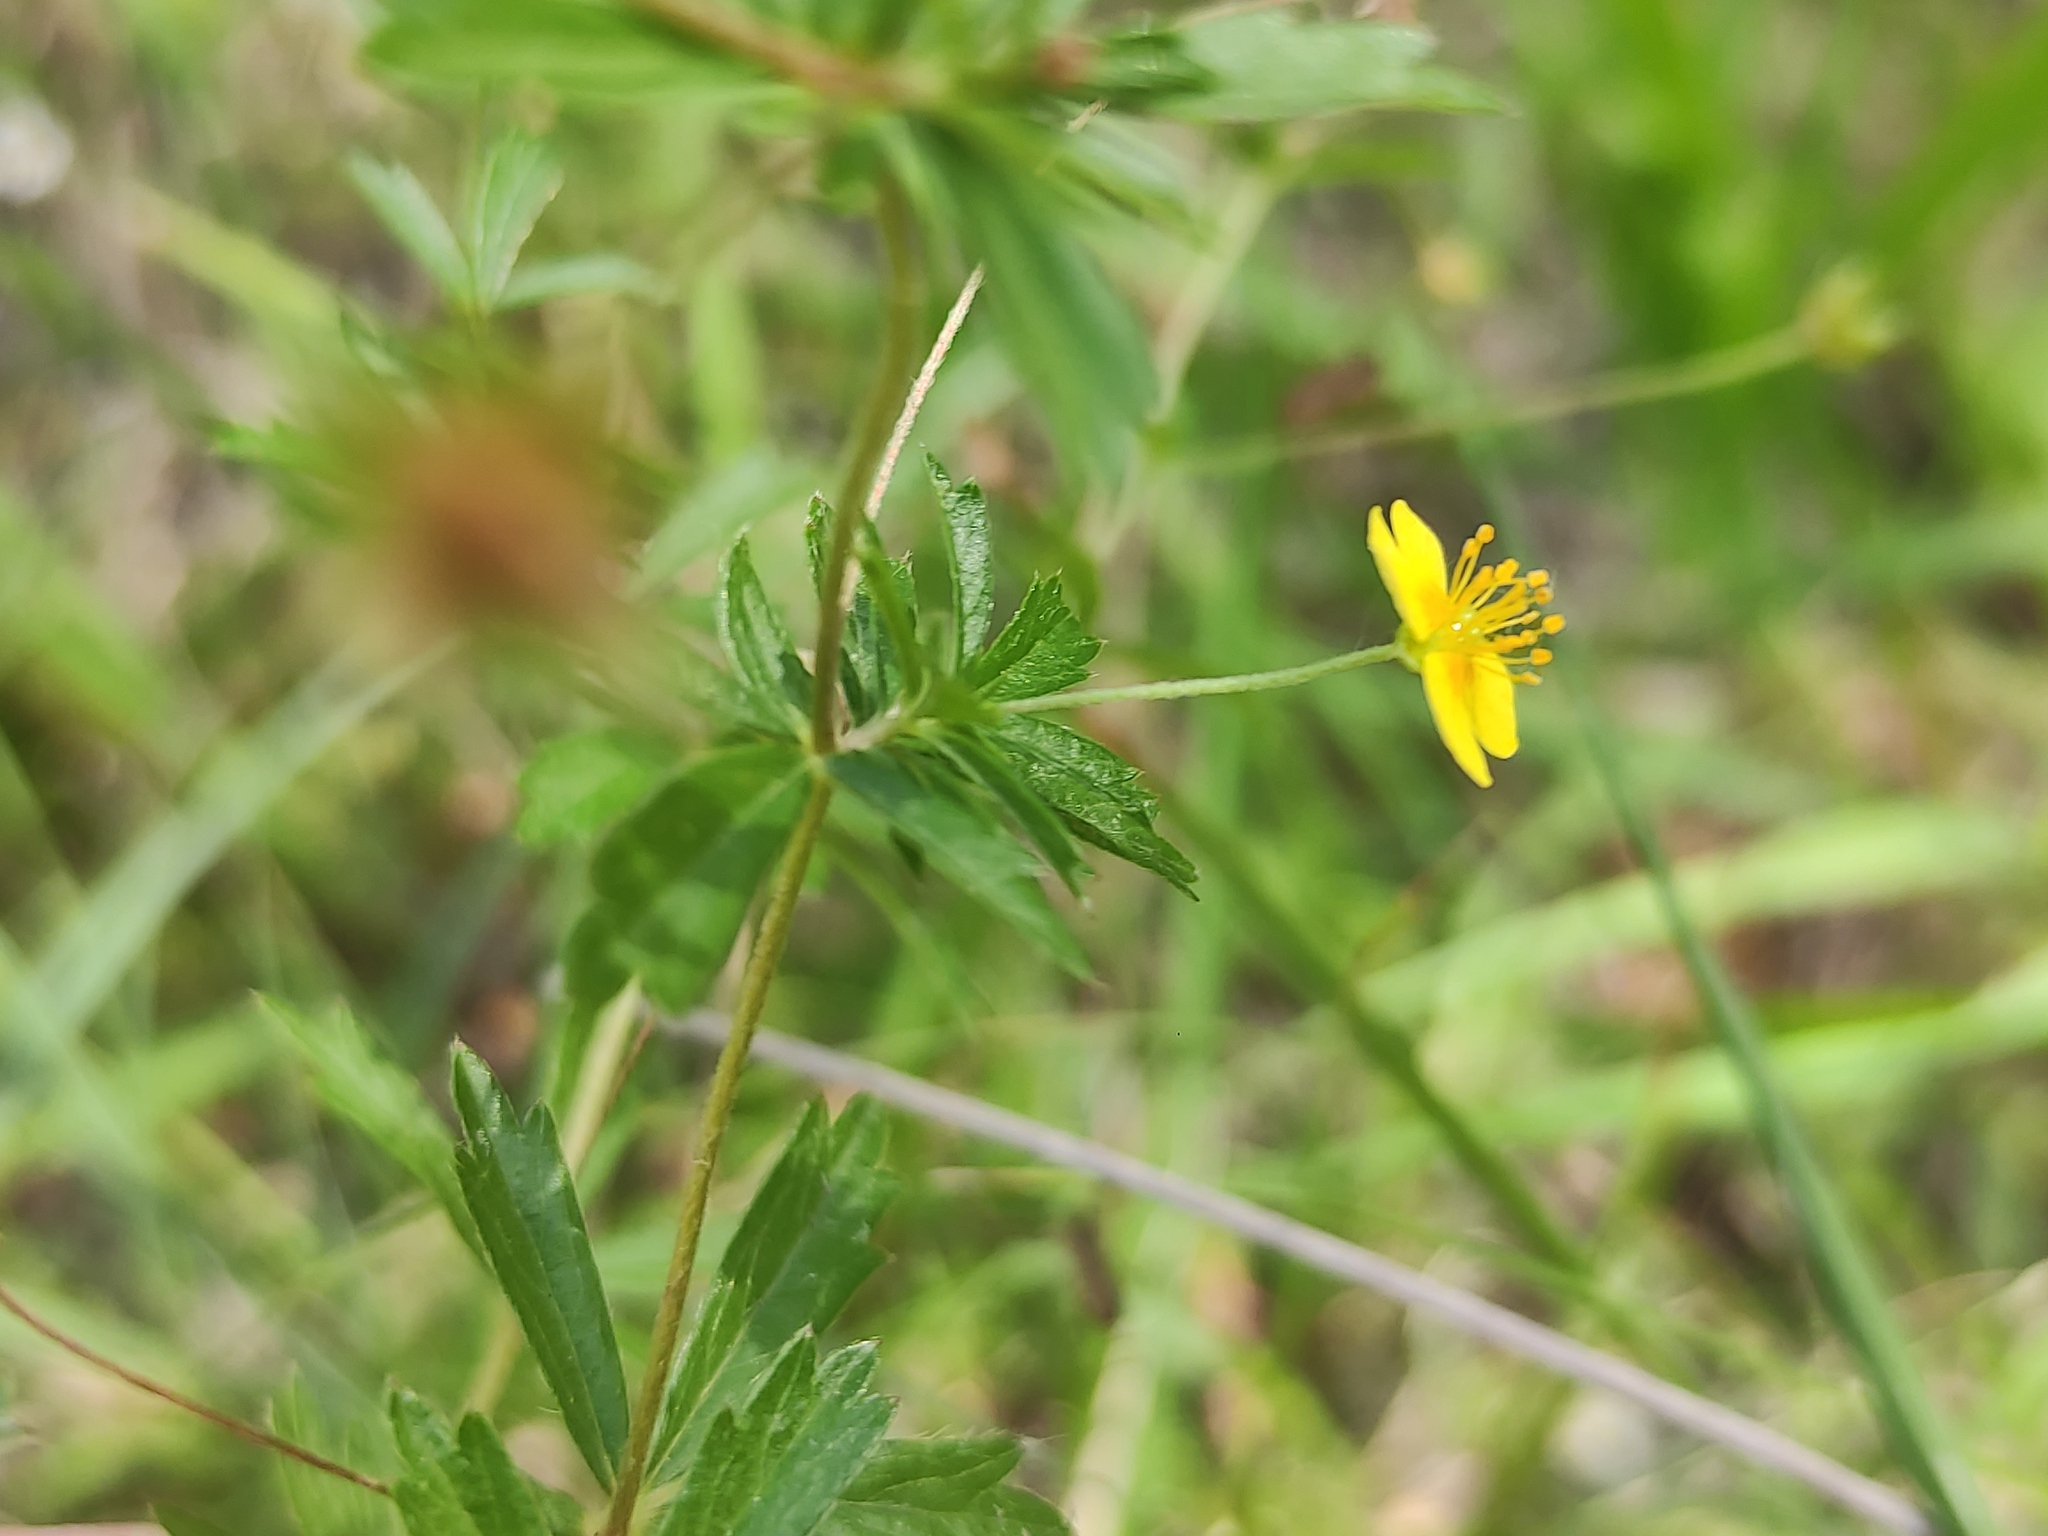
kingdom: Plantae
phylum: Tracheophyta
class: Magnoliopsida
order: Rosales
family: Rosaceae
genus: Potentilla
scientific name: Potentilla erecta
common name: Tormentil
